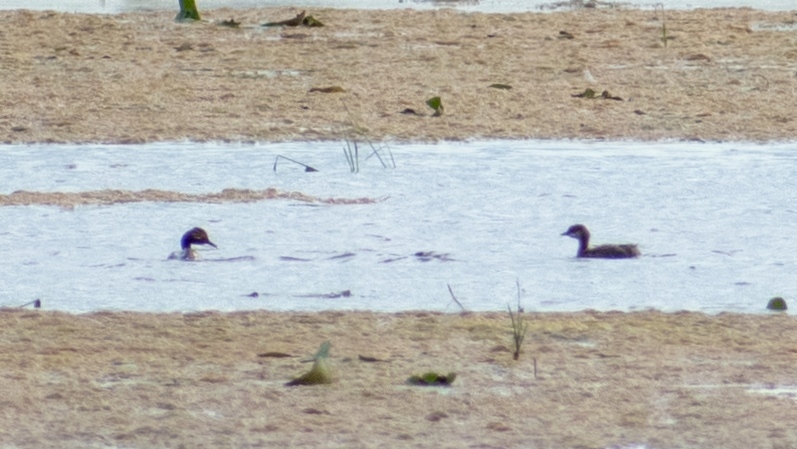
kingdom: Animalia
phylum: Chordata
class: Aves
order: Podicipediformes
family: Podicipedidae
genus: Podiceps
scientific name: Podiceps nigricollis
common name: Black-necked grebe
